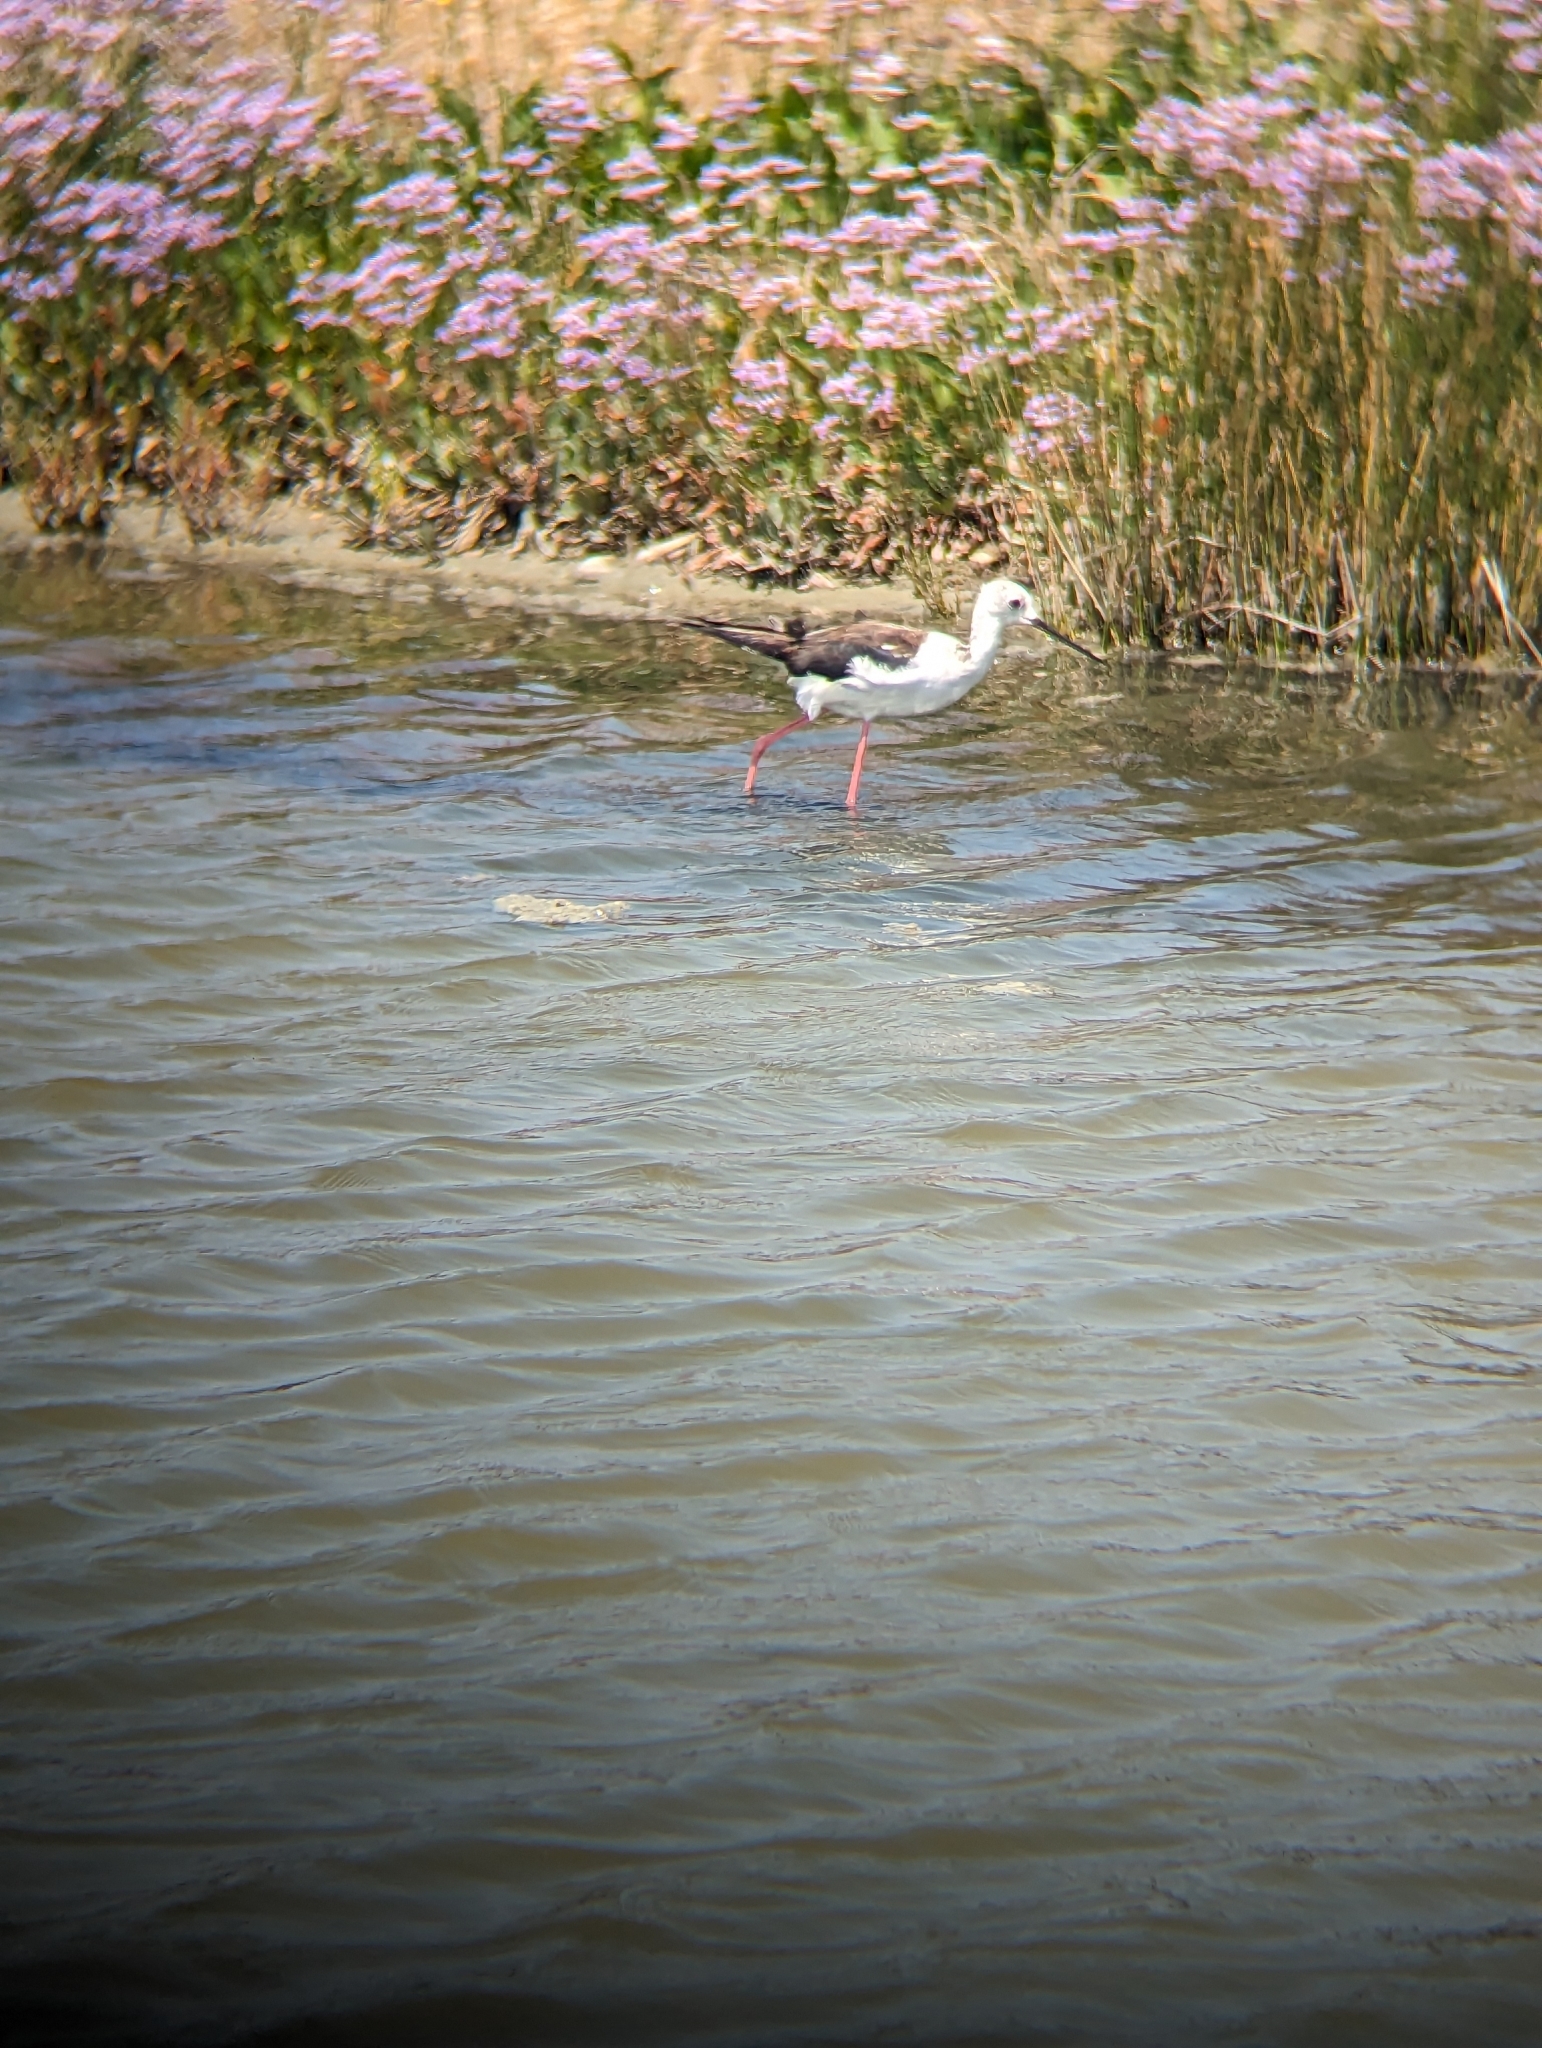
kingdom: Animalia
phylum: Chordata
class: Aves
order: Charadriiformes
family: Recurvirostridae
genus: Himantopus
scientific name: Himantopus himantopus
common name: Black-winged stilt
